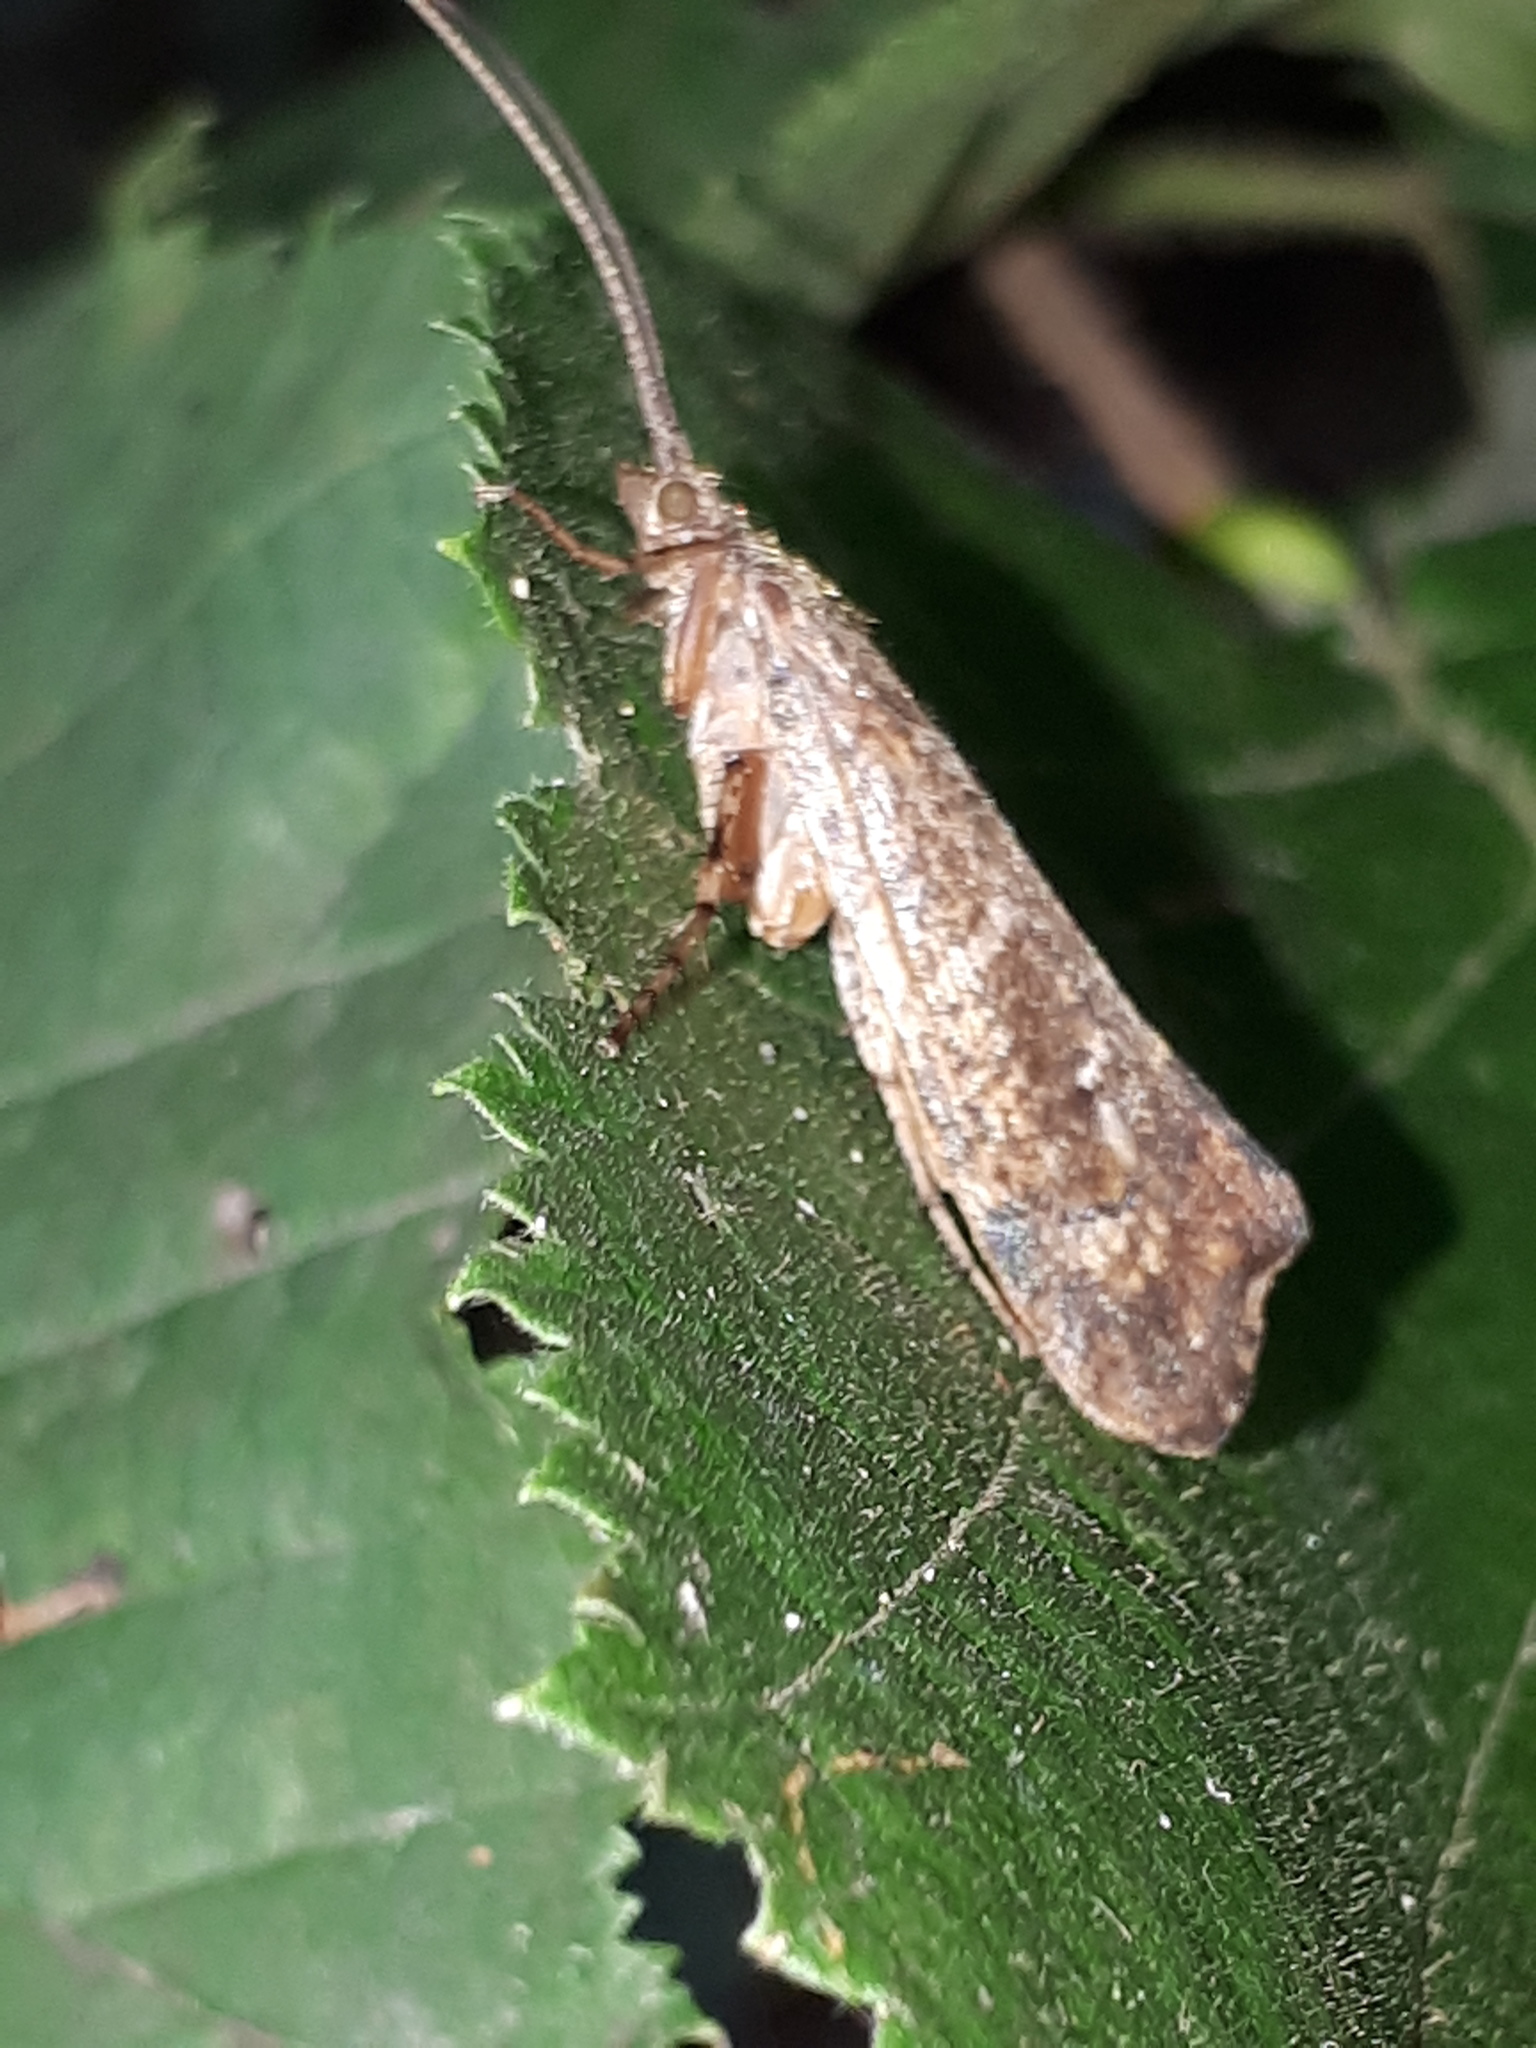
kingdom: Animalia
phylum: Arthropoda
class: Insecta
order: Trichoptera
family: Limnephilidae
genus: Glyphotaelius
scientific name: Glyphotaelius pellucidus
